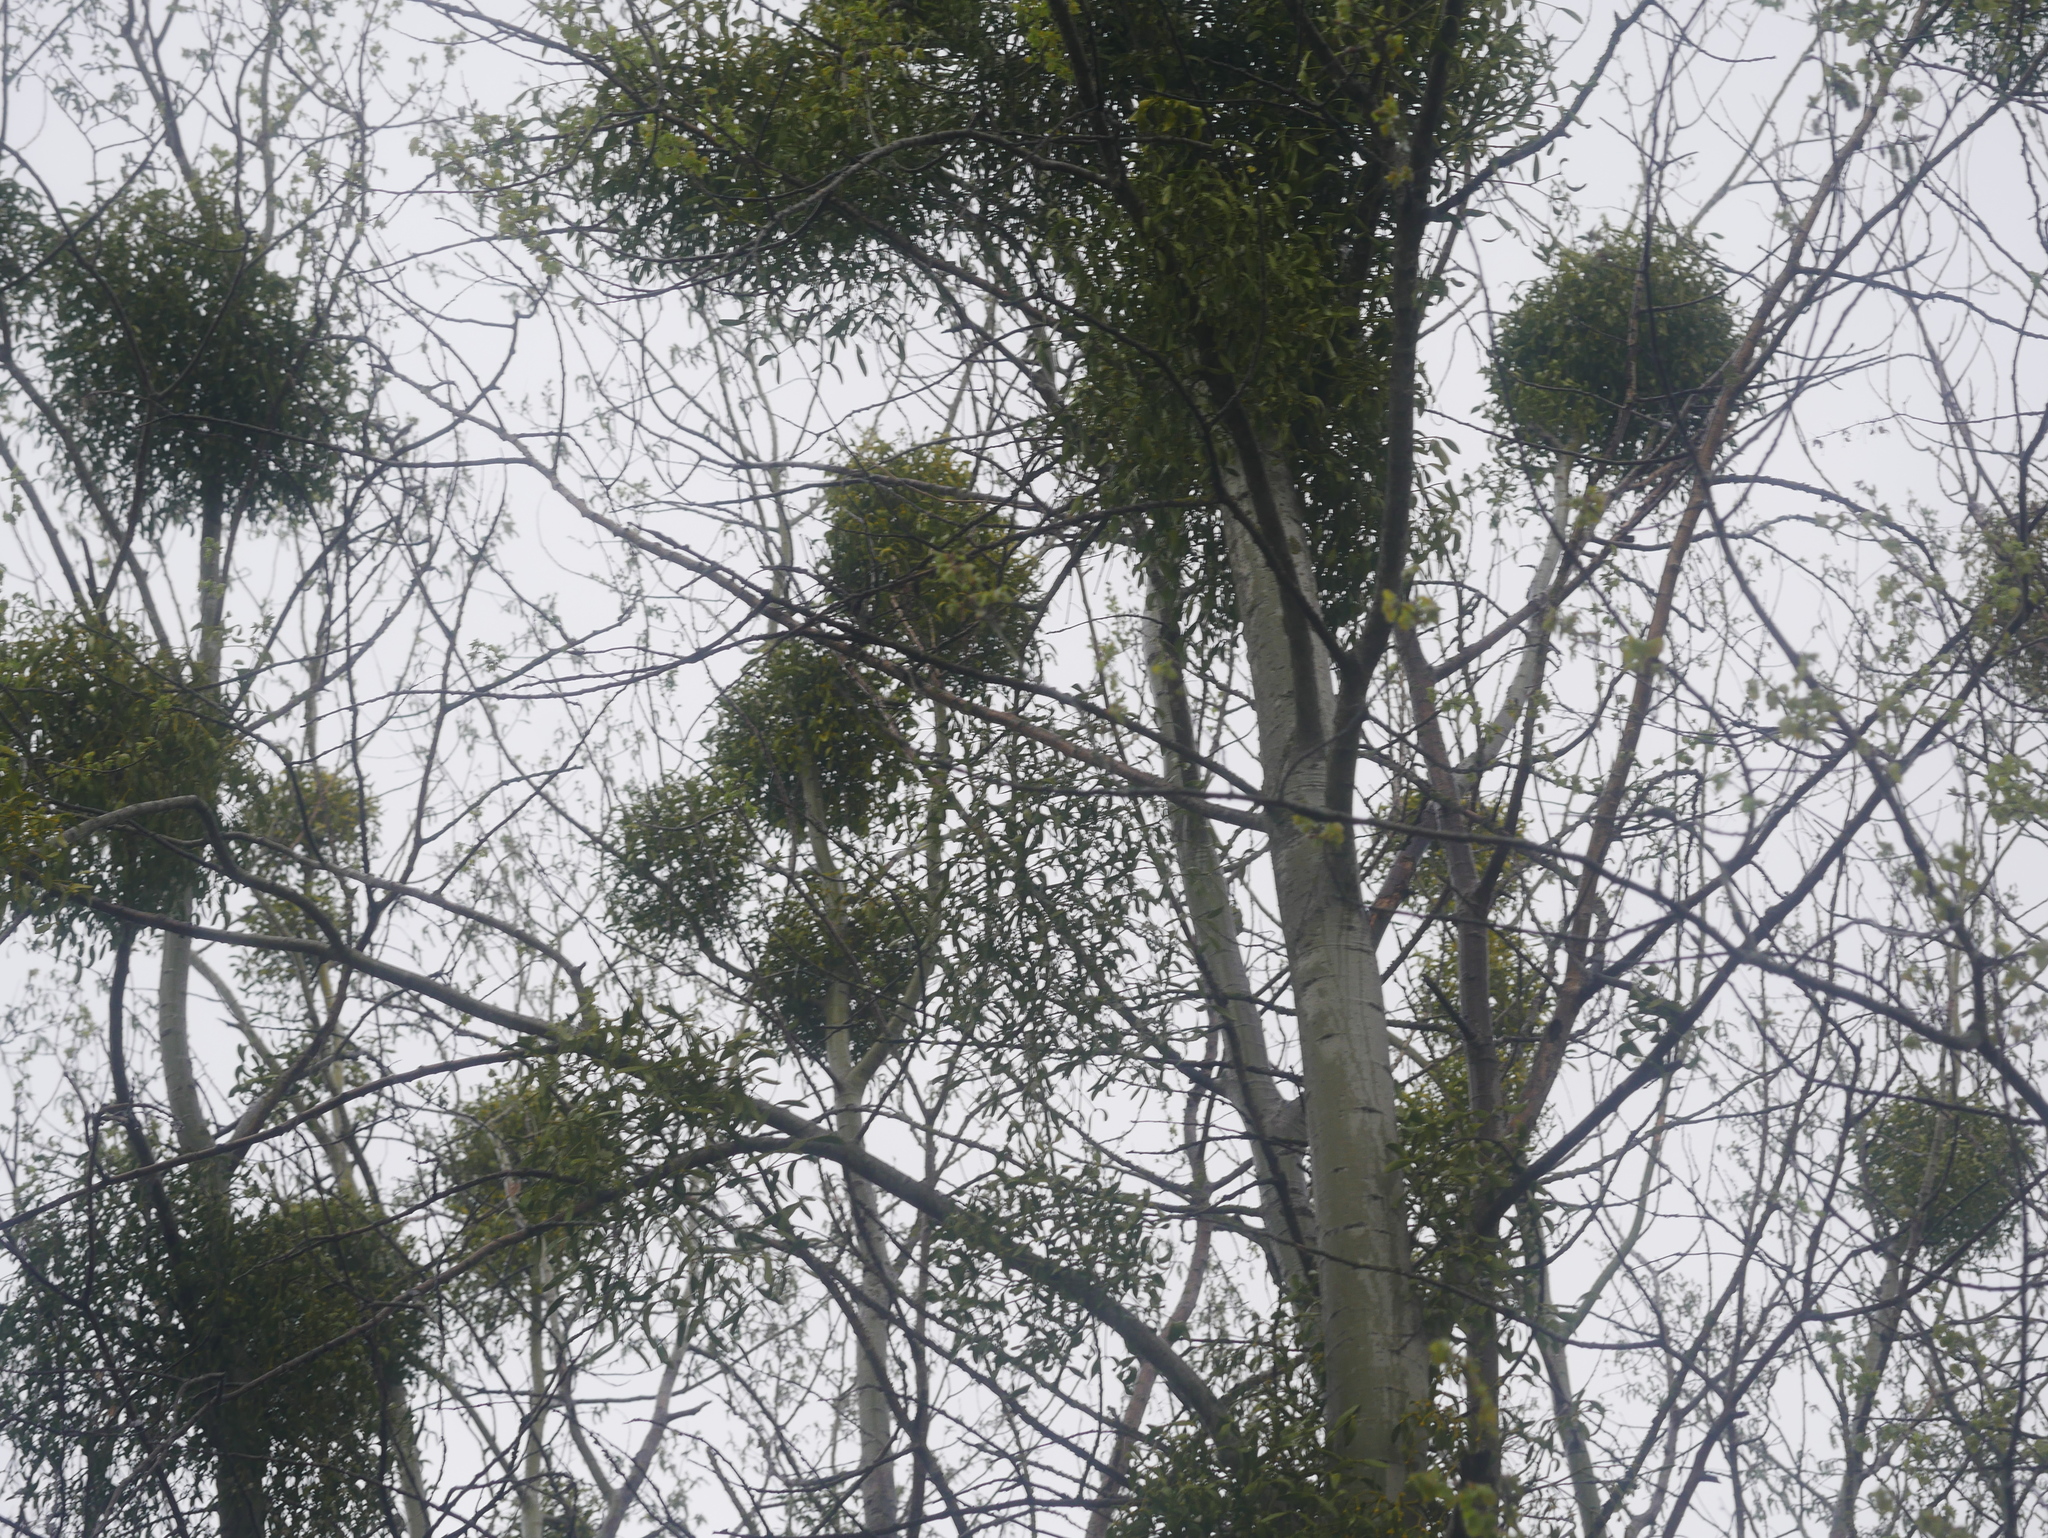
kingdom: Plantae
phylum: Tracheophyta
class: Magnoliopsida
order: Santalales
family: Viscaceae
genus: Viscum
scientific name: Viscum album
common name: Mistletoe
